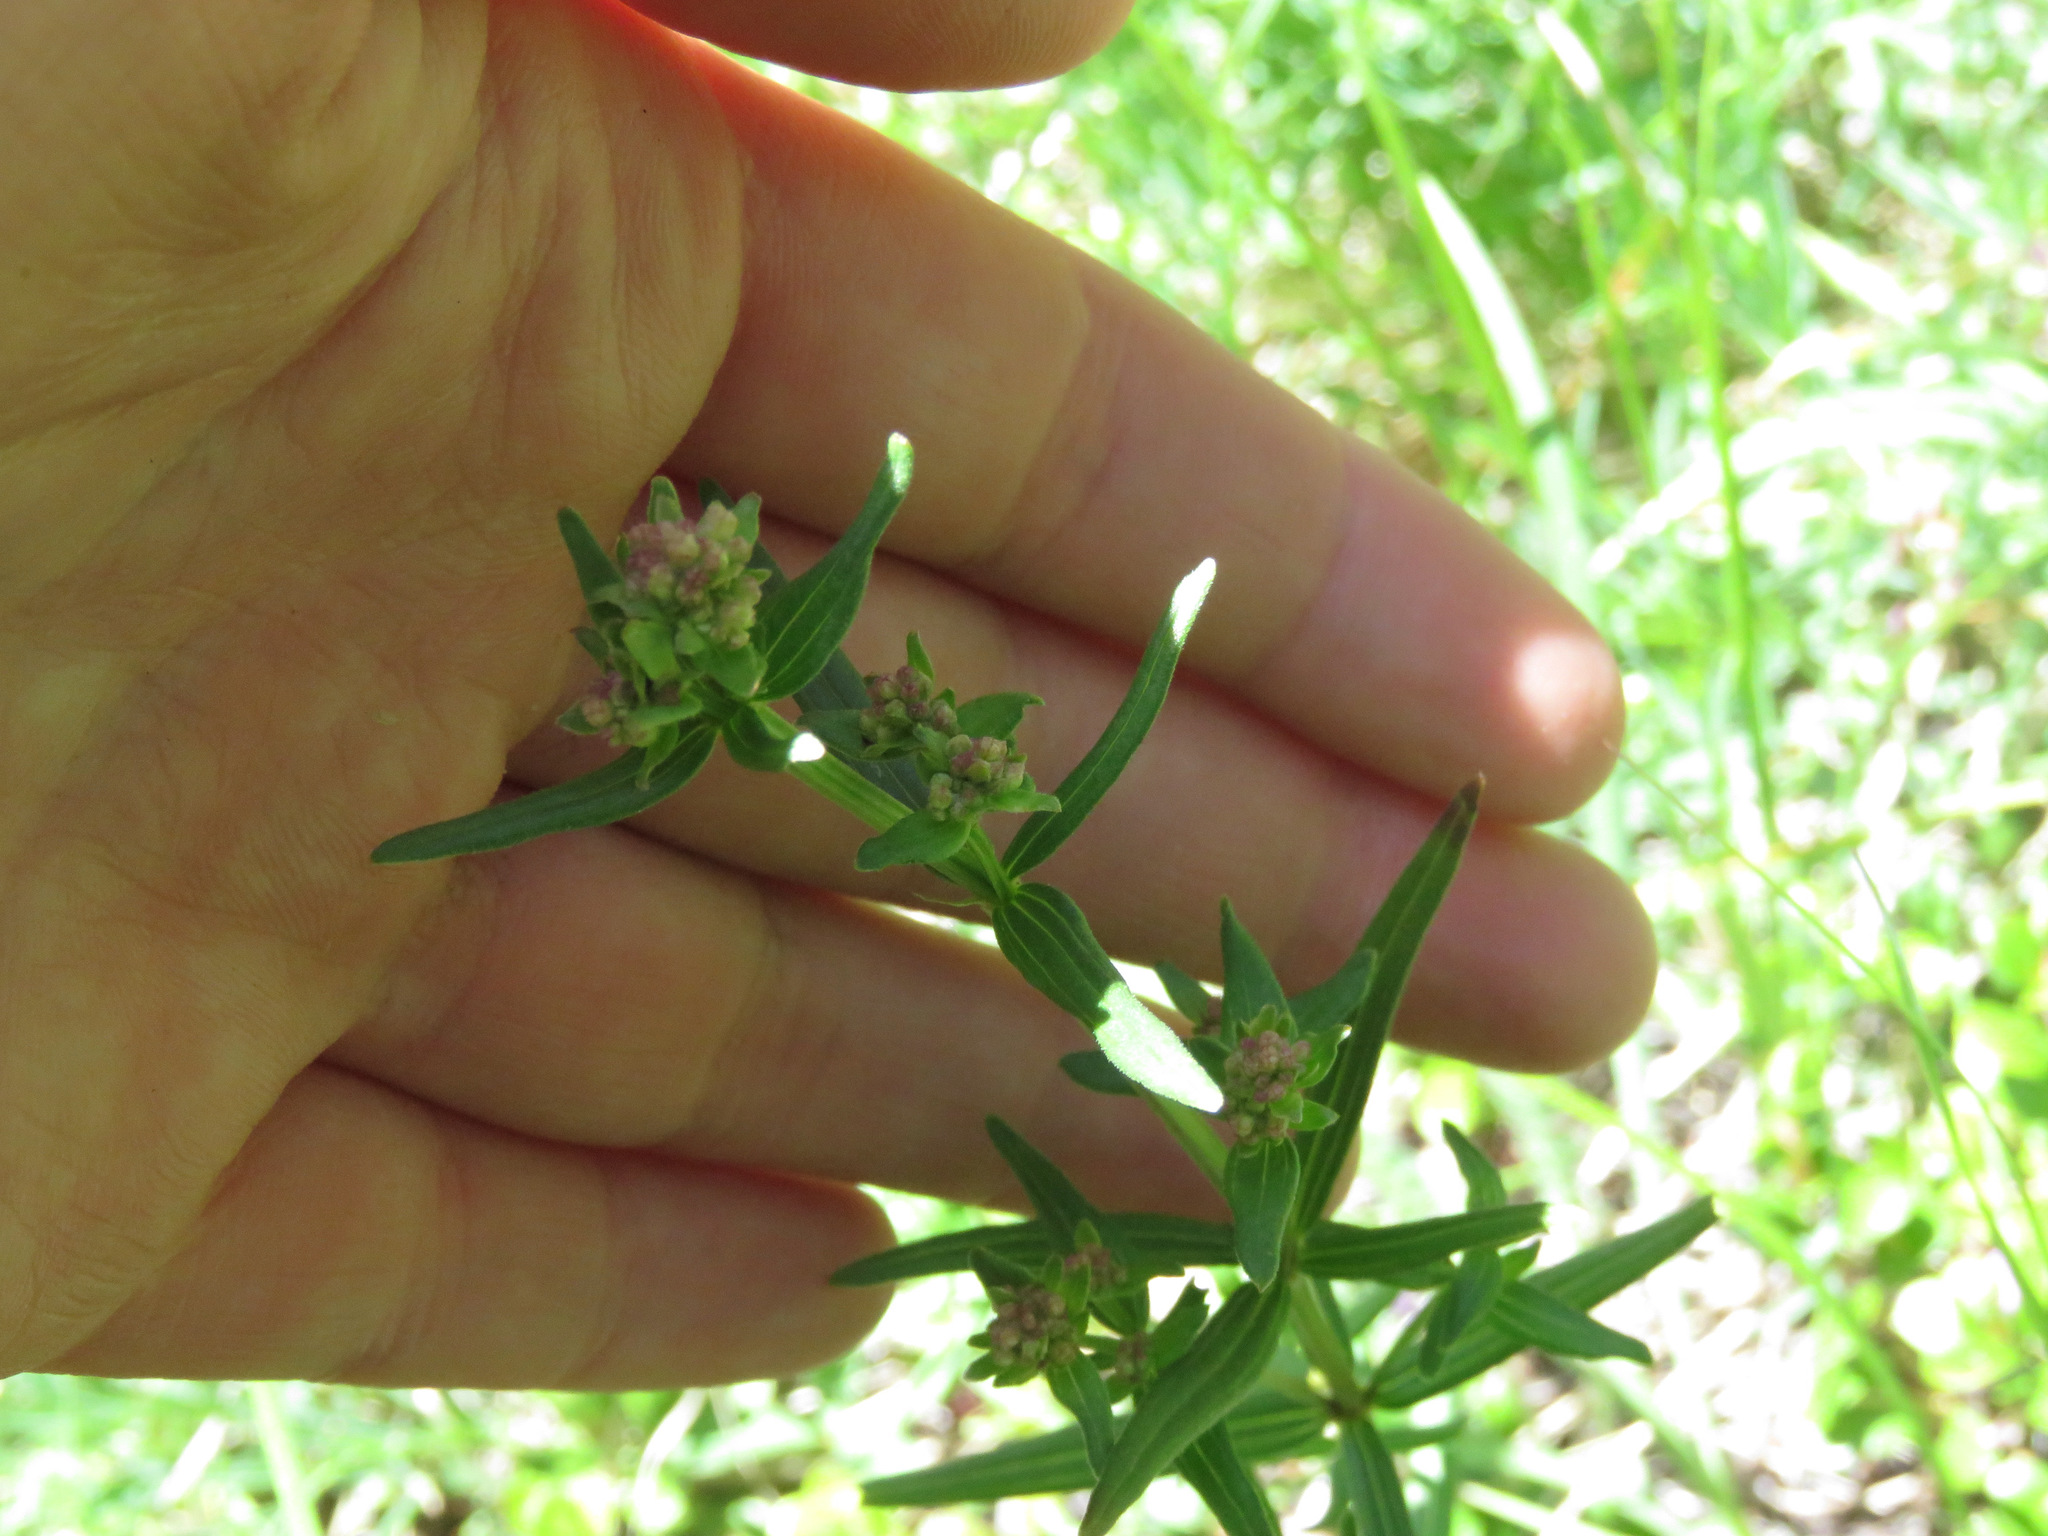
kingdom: Plantae
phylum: Tracheophyta
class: Magnoliopsida
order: Gentianales
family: Rubiaceae
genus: Galium
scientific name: Galium boreale
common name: Northern bedstraw
